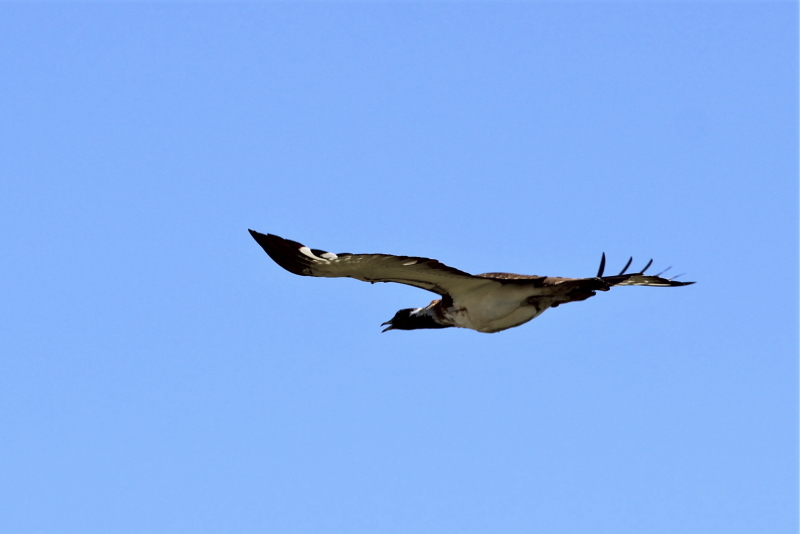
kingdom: Animalia
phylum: Chordata
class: Aves
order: Otidiformes
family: Otididae
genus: Neotis
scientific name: Neotis ludwigii
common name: Ludwig's bustard
